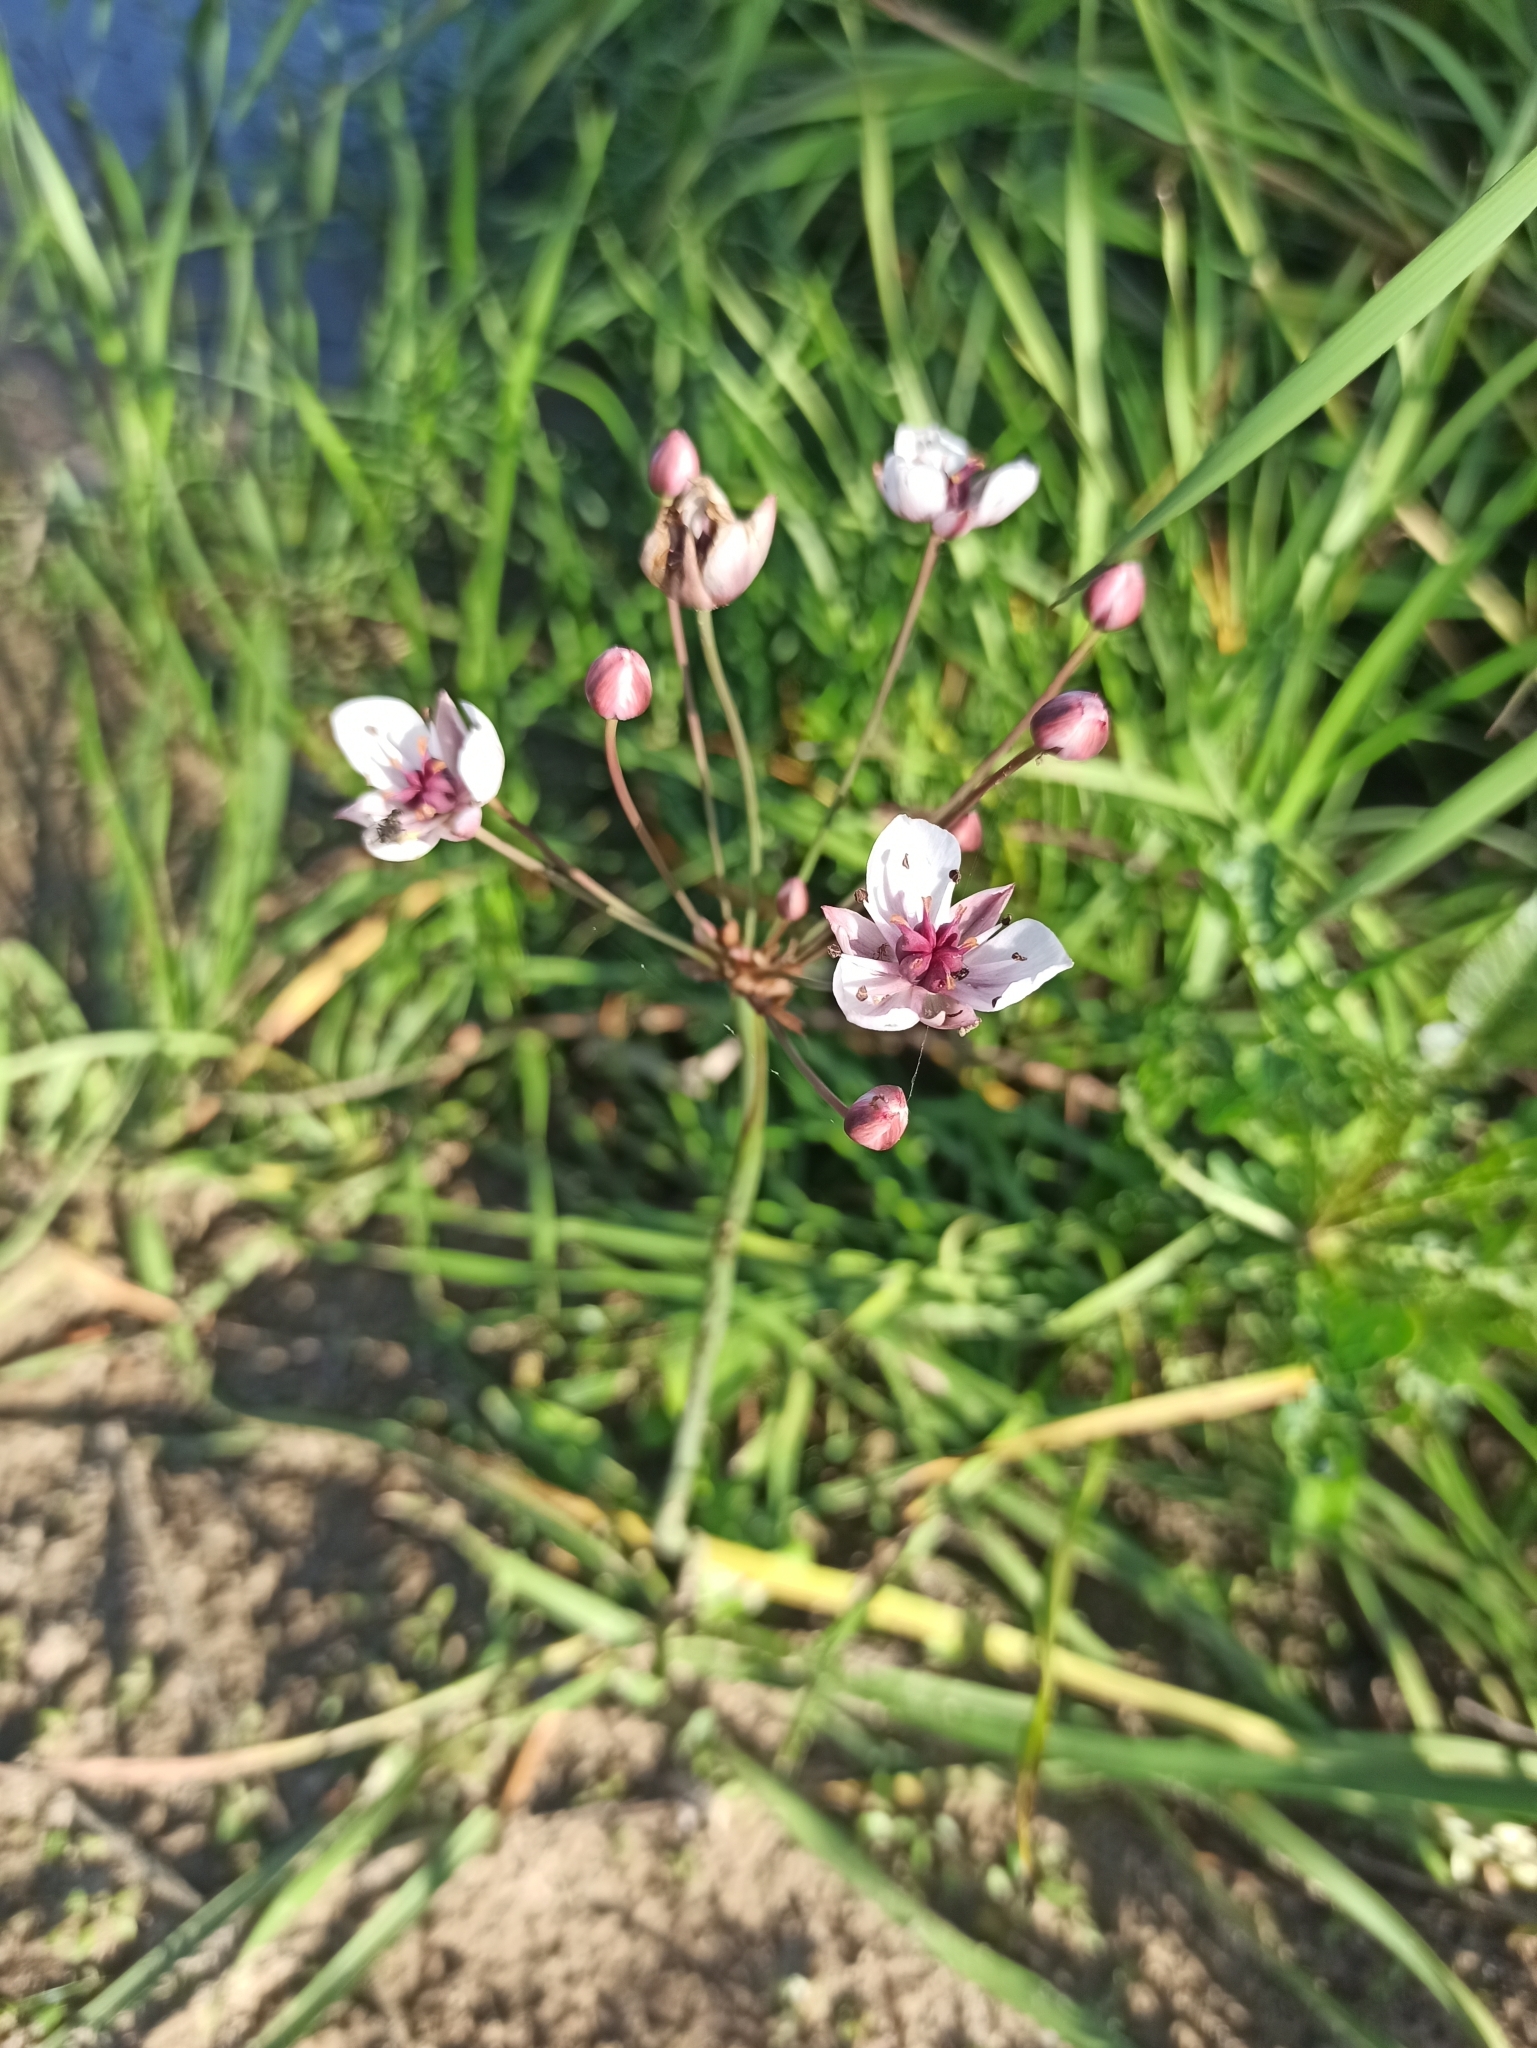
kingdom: Plantae
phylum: Tracheophyta
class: Liliopsida
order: Alismatales
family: Butomaceae
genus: Butomus
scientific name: Butomus umbellatus
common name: Flowering-rush
